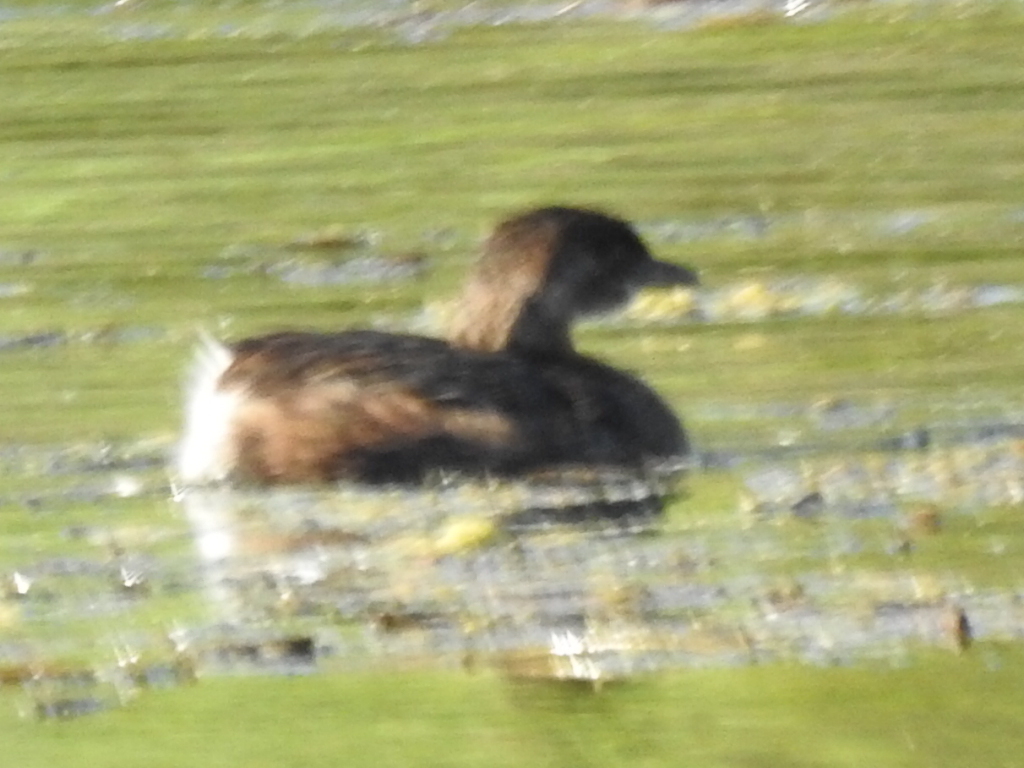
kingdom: Animalia
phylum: Chordata
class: Aves
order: Podicipediformes
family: Podicipedidae
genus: Podilymbus
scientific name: Podilymbus podiceps
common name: Pied-billed grebe
